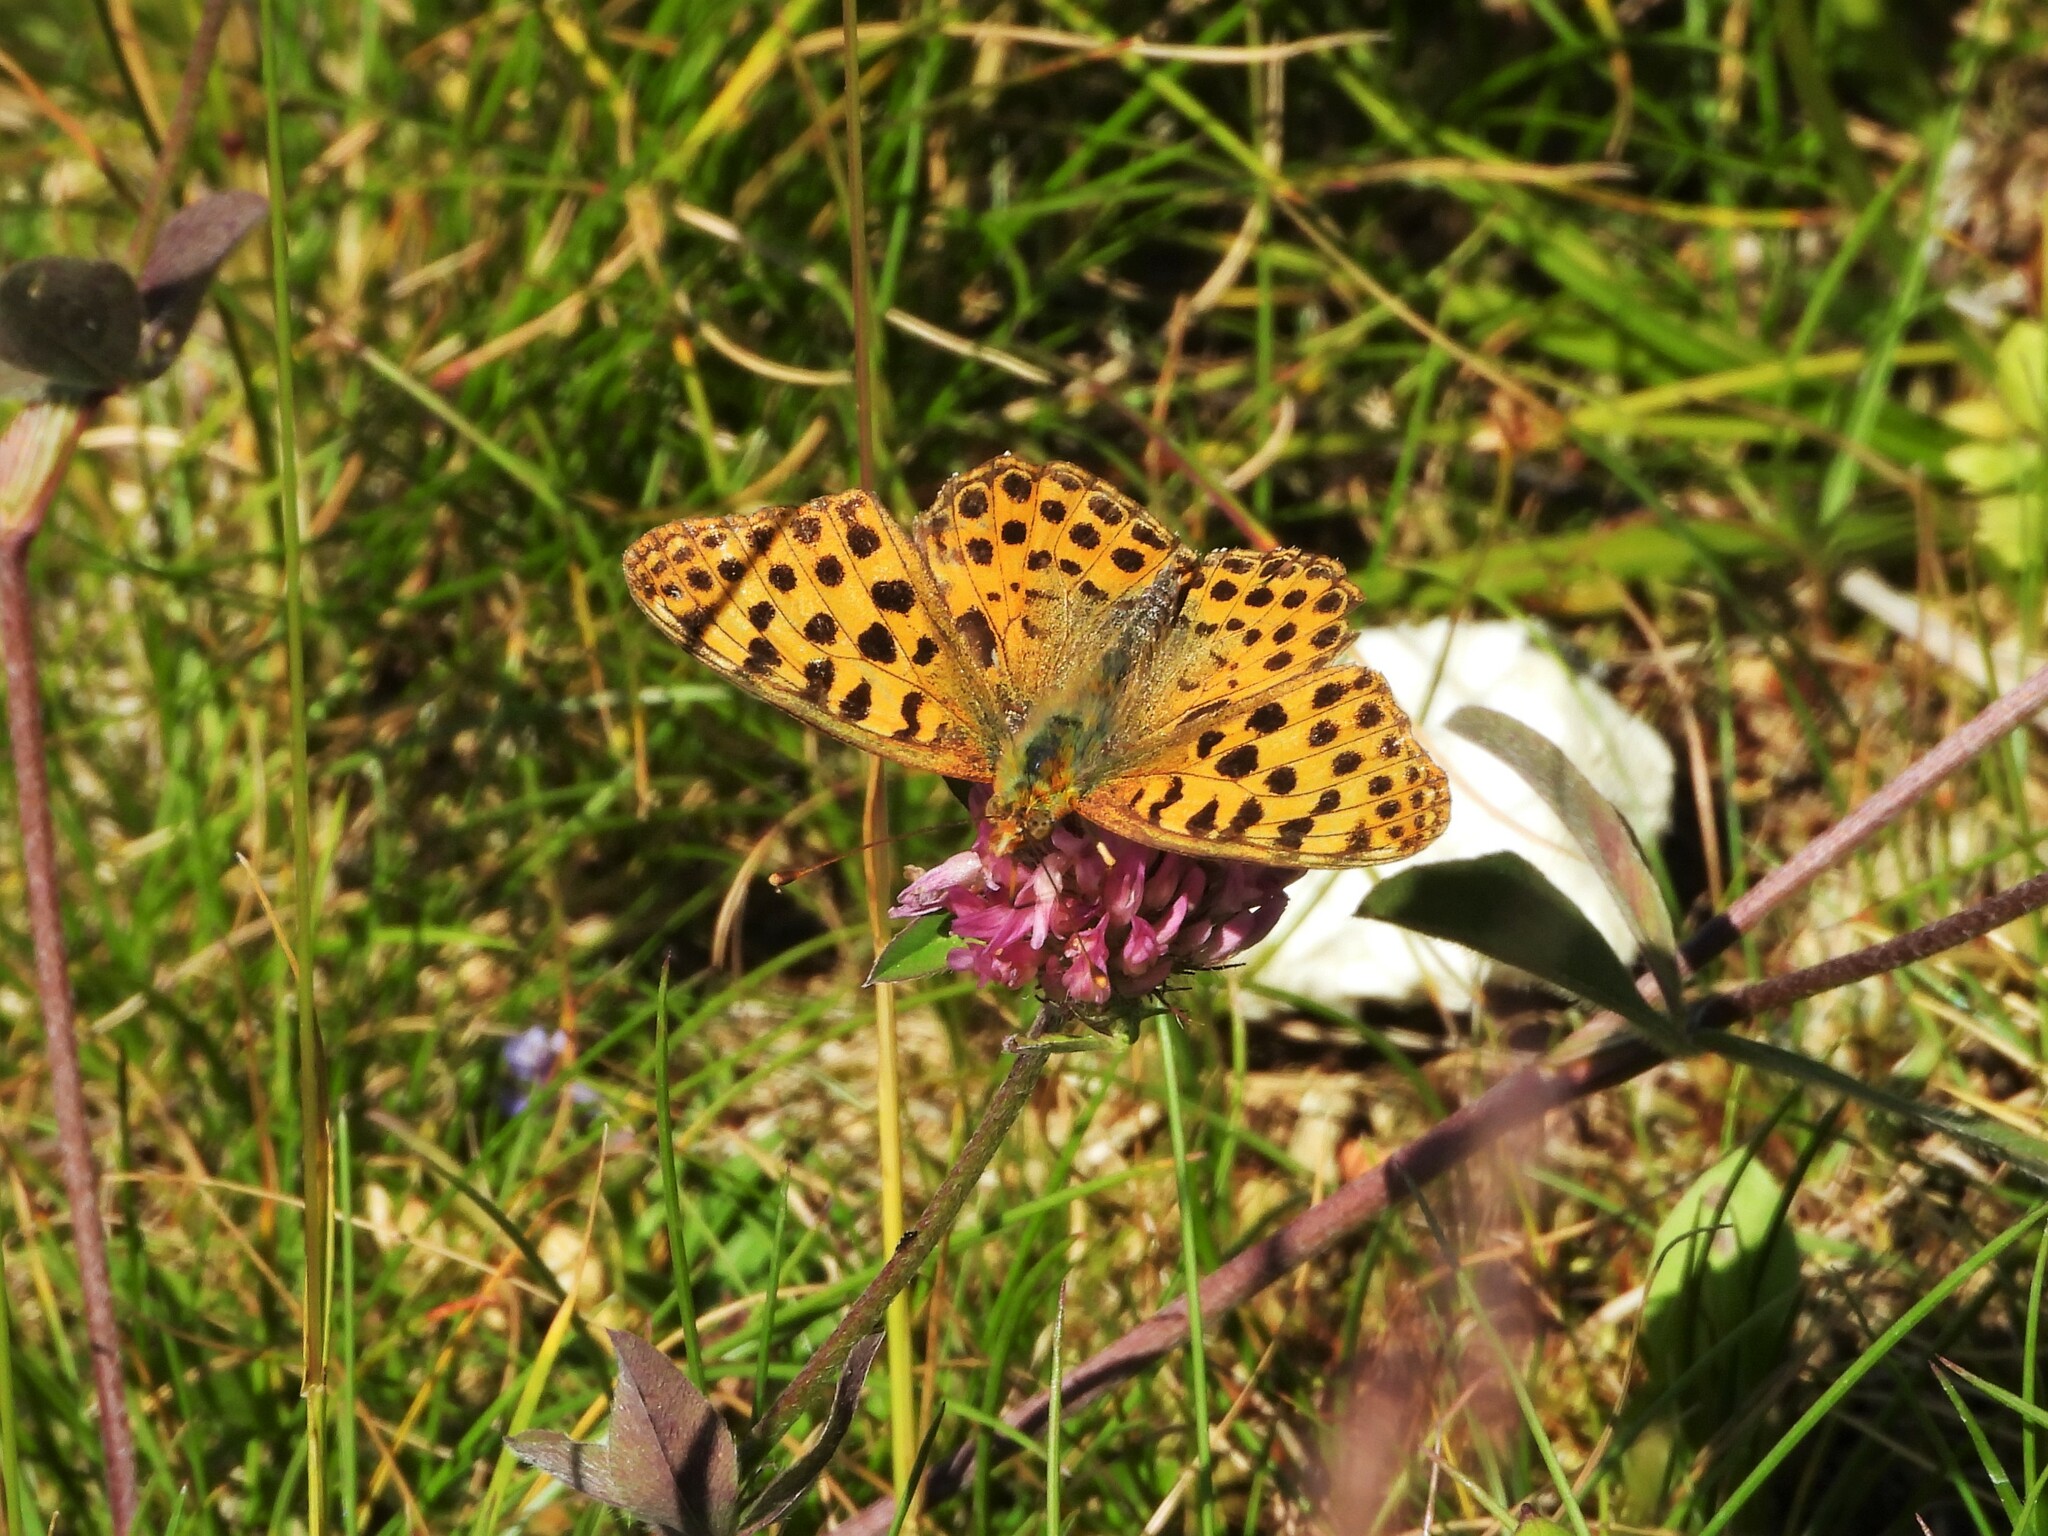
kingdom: Animalia
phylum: Arthropoda
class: Insecta
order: Lepidoptera
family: Nymphalidae
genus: Issoria
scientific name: Issoria lathonia
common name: Queen of spain fritillary
